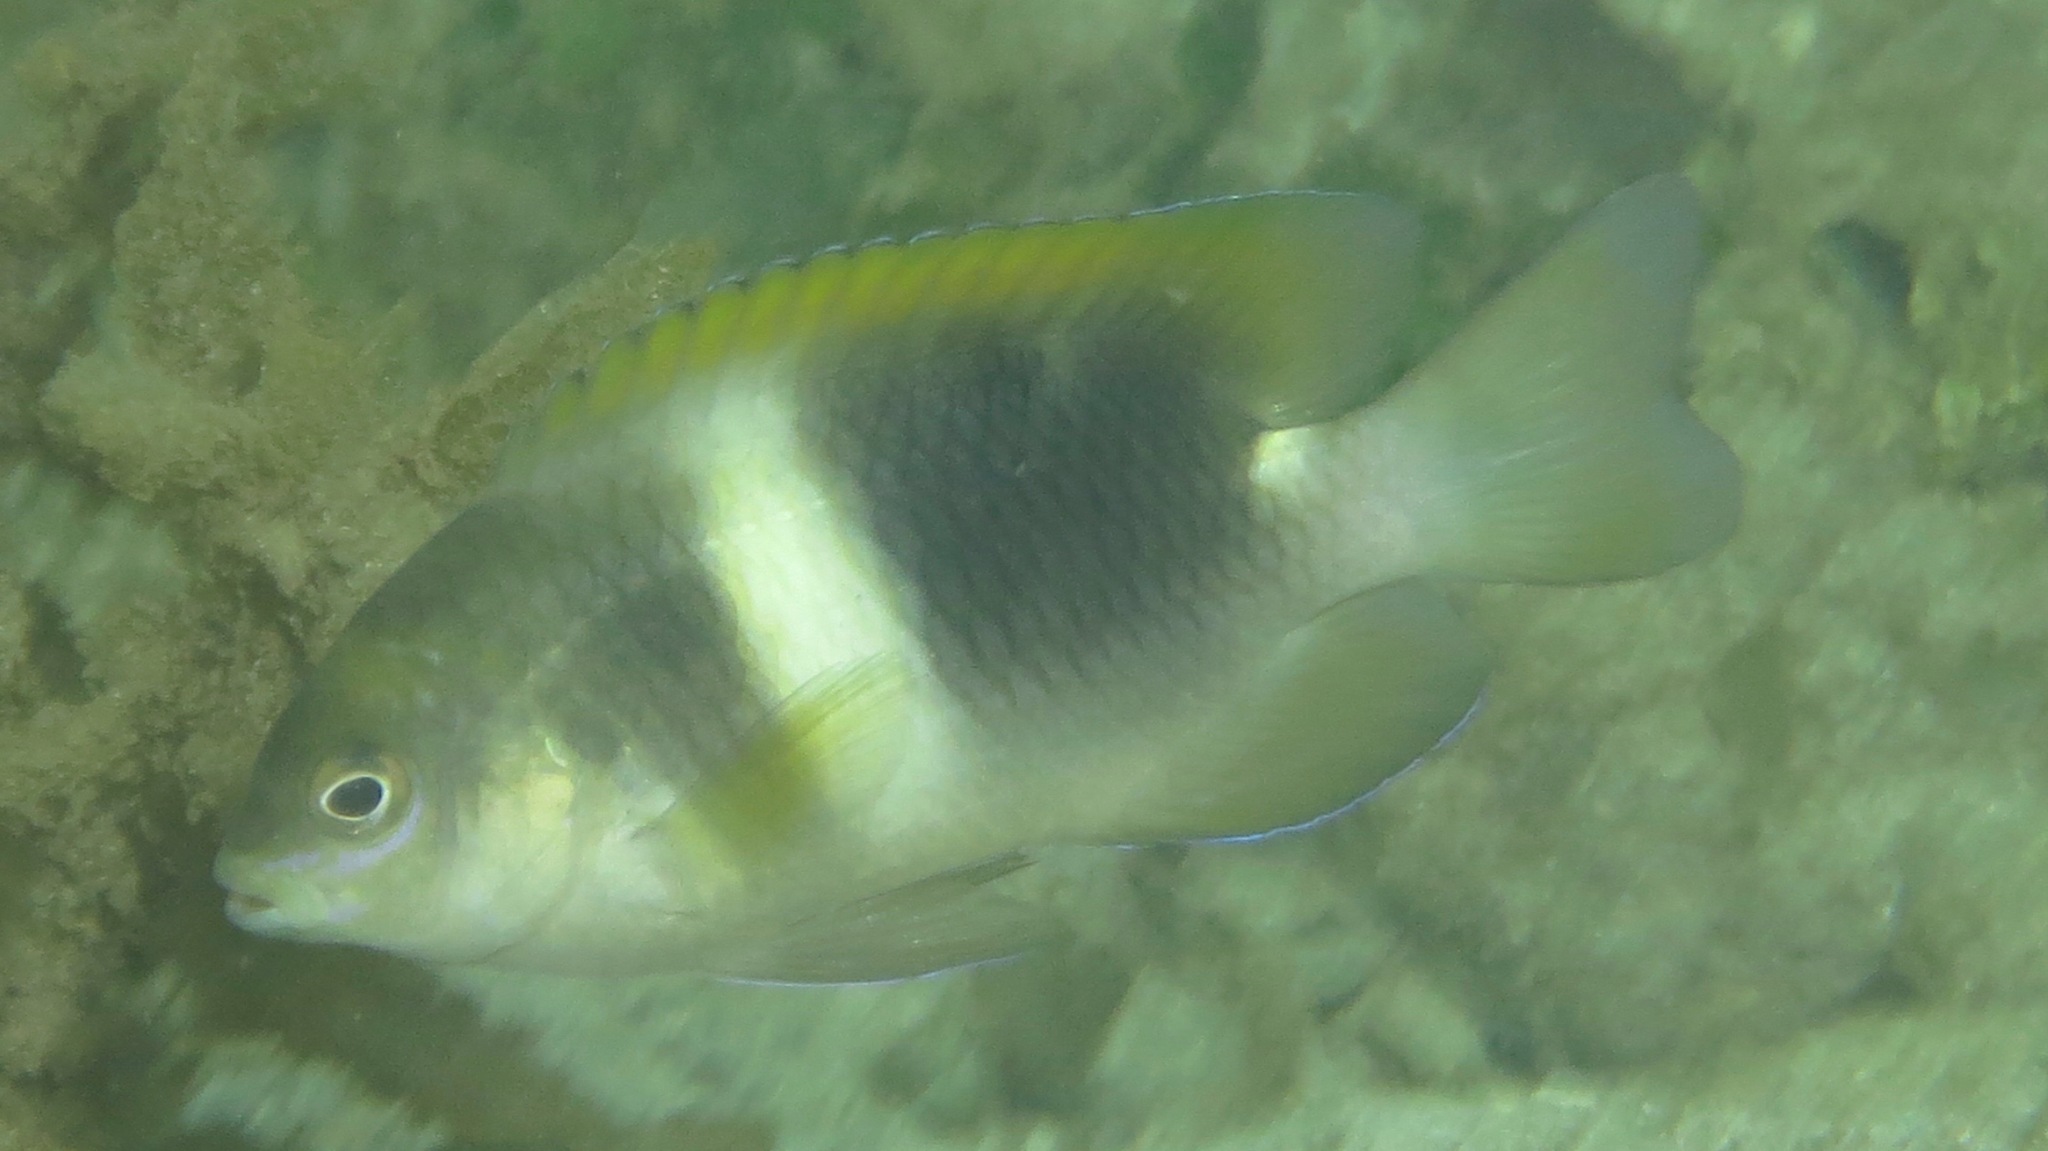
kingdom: Animalia
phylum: Chordata
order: Perciformes
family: Pomacentridae
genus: Chrysiptera
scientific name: Chrysiptera biocellata
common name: Twinspot damselfish
